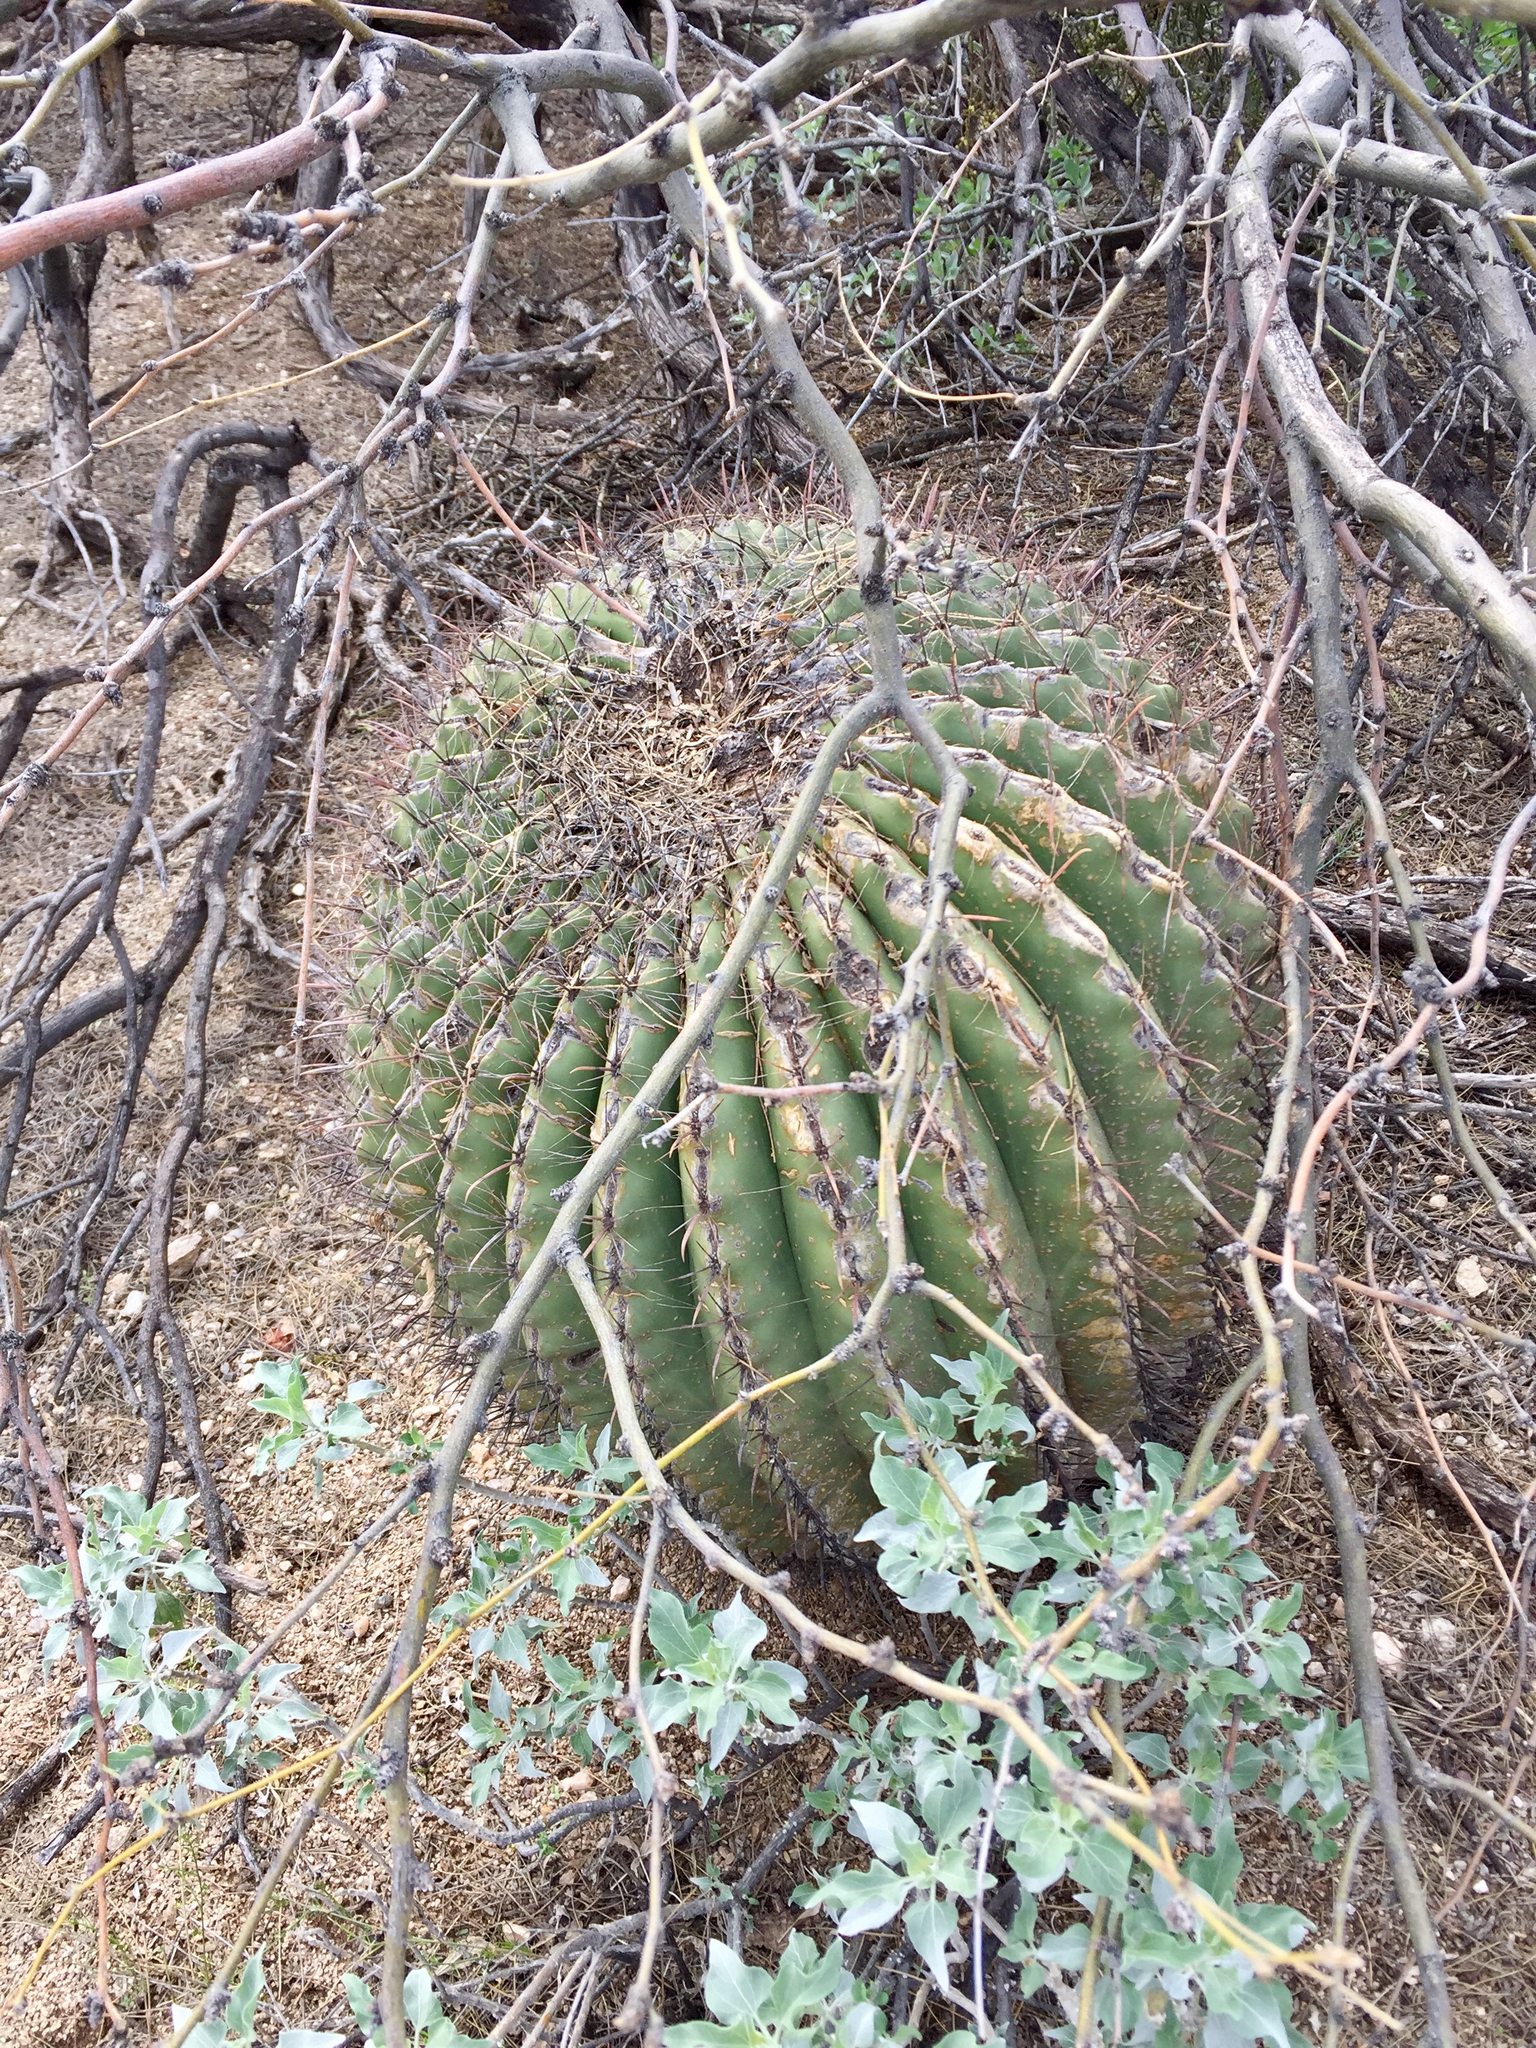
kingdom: Plantae
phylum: Tracheophyta
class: Magnoliopsida
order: Caryophyllales
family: Cactaceae
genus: Ferocactus
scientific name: Ferocactus wislizeni
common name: Candy barrel cactus
